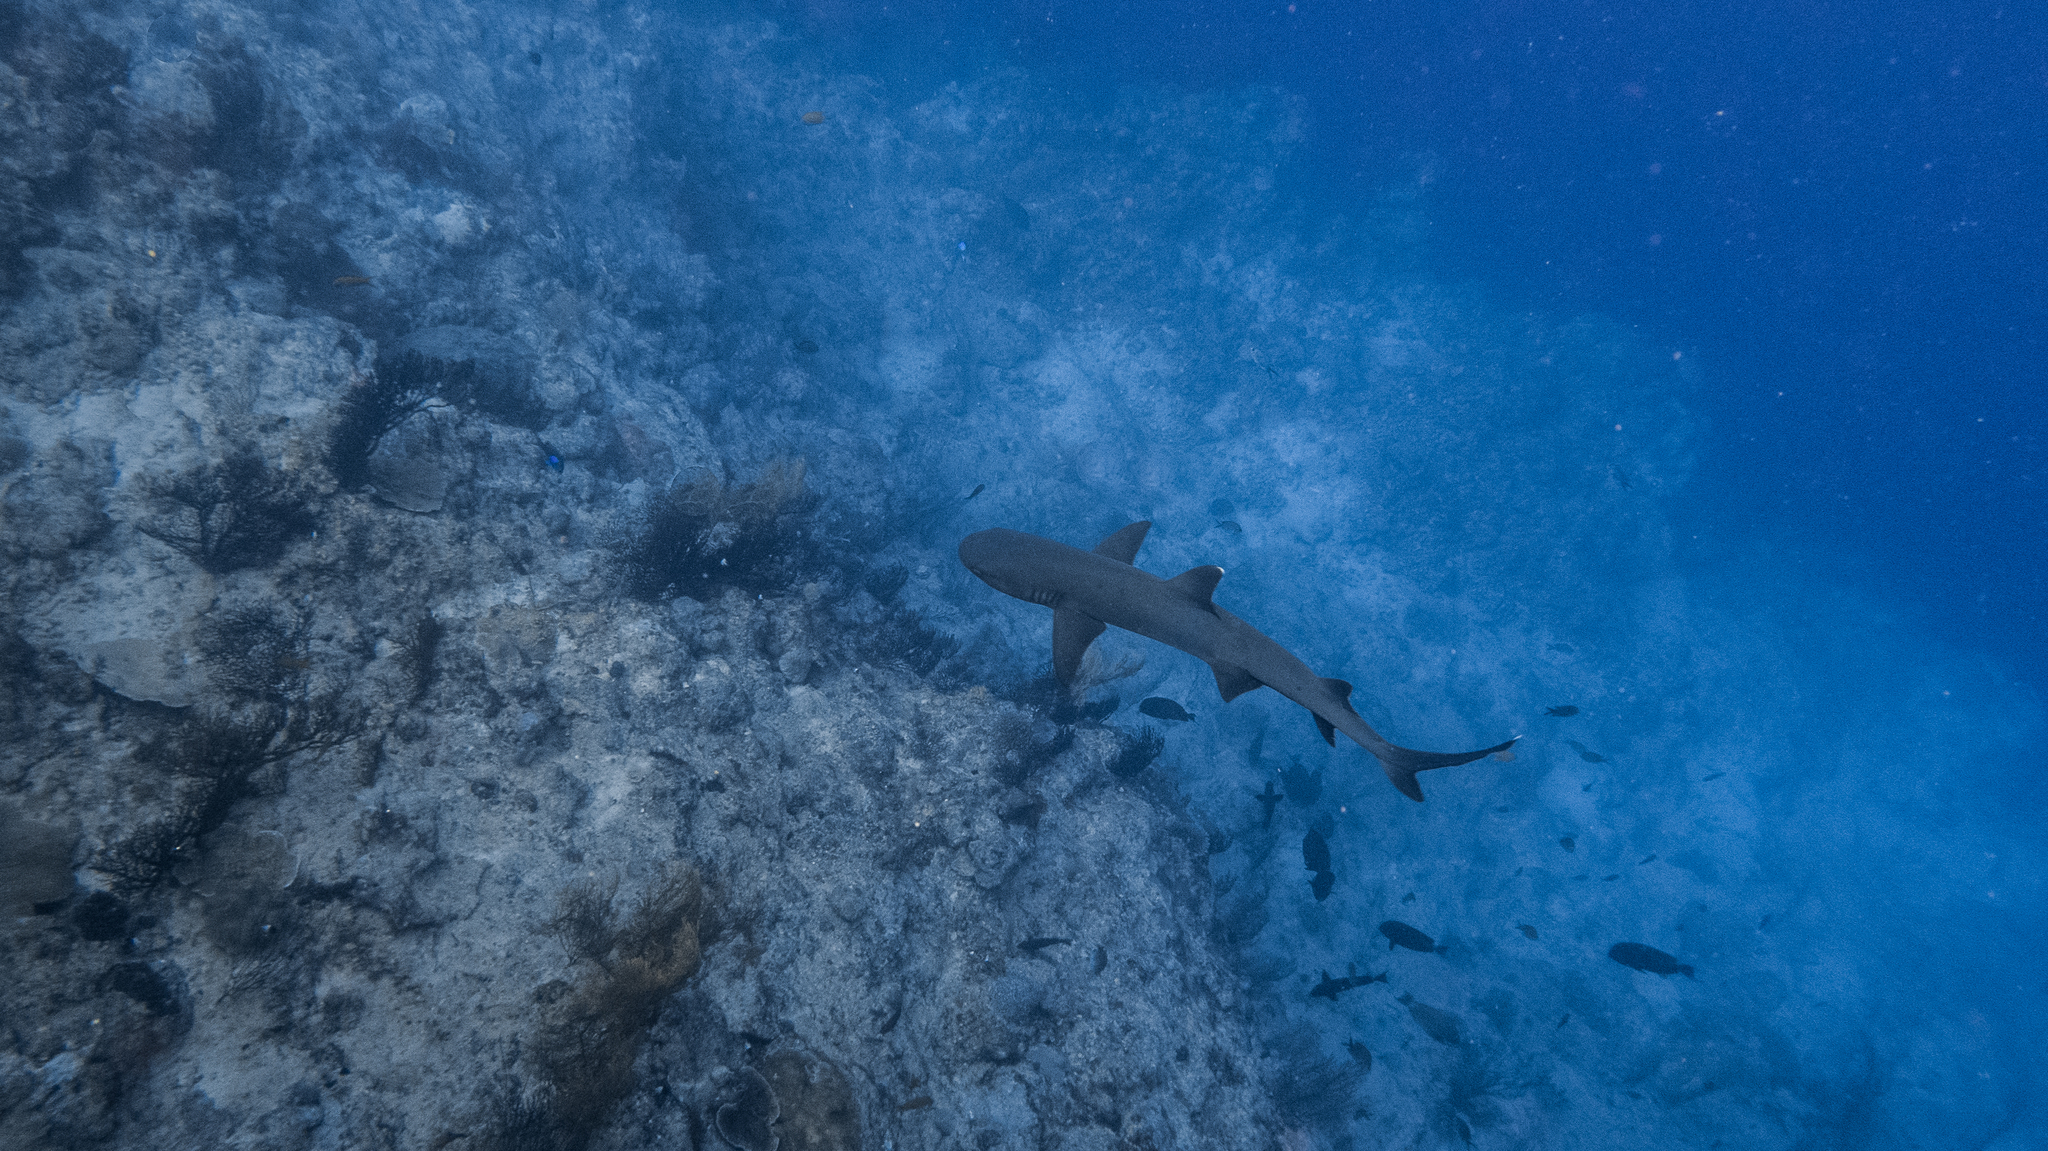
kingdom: Animalia
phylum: Chordata
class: Elasmobranchii
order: Carcharhiniformes
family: Carcharhinidae
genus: Triaenodon
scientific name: Triaenodon obesus
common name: Whitetip reef shark
